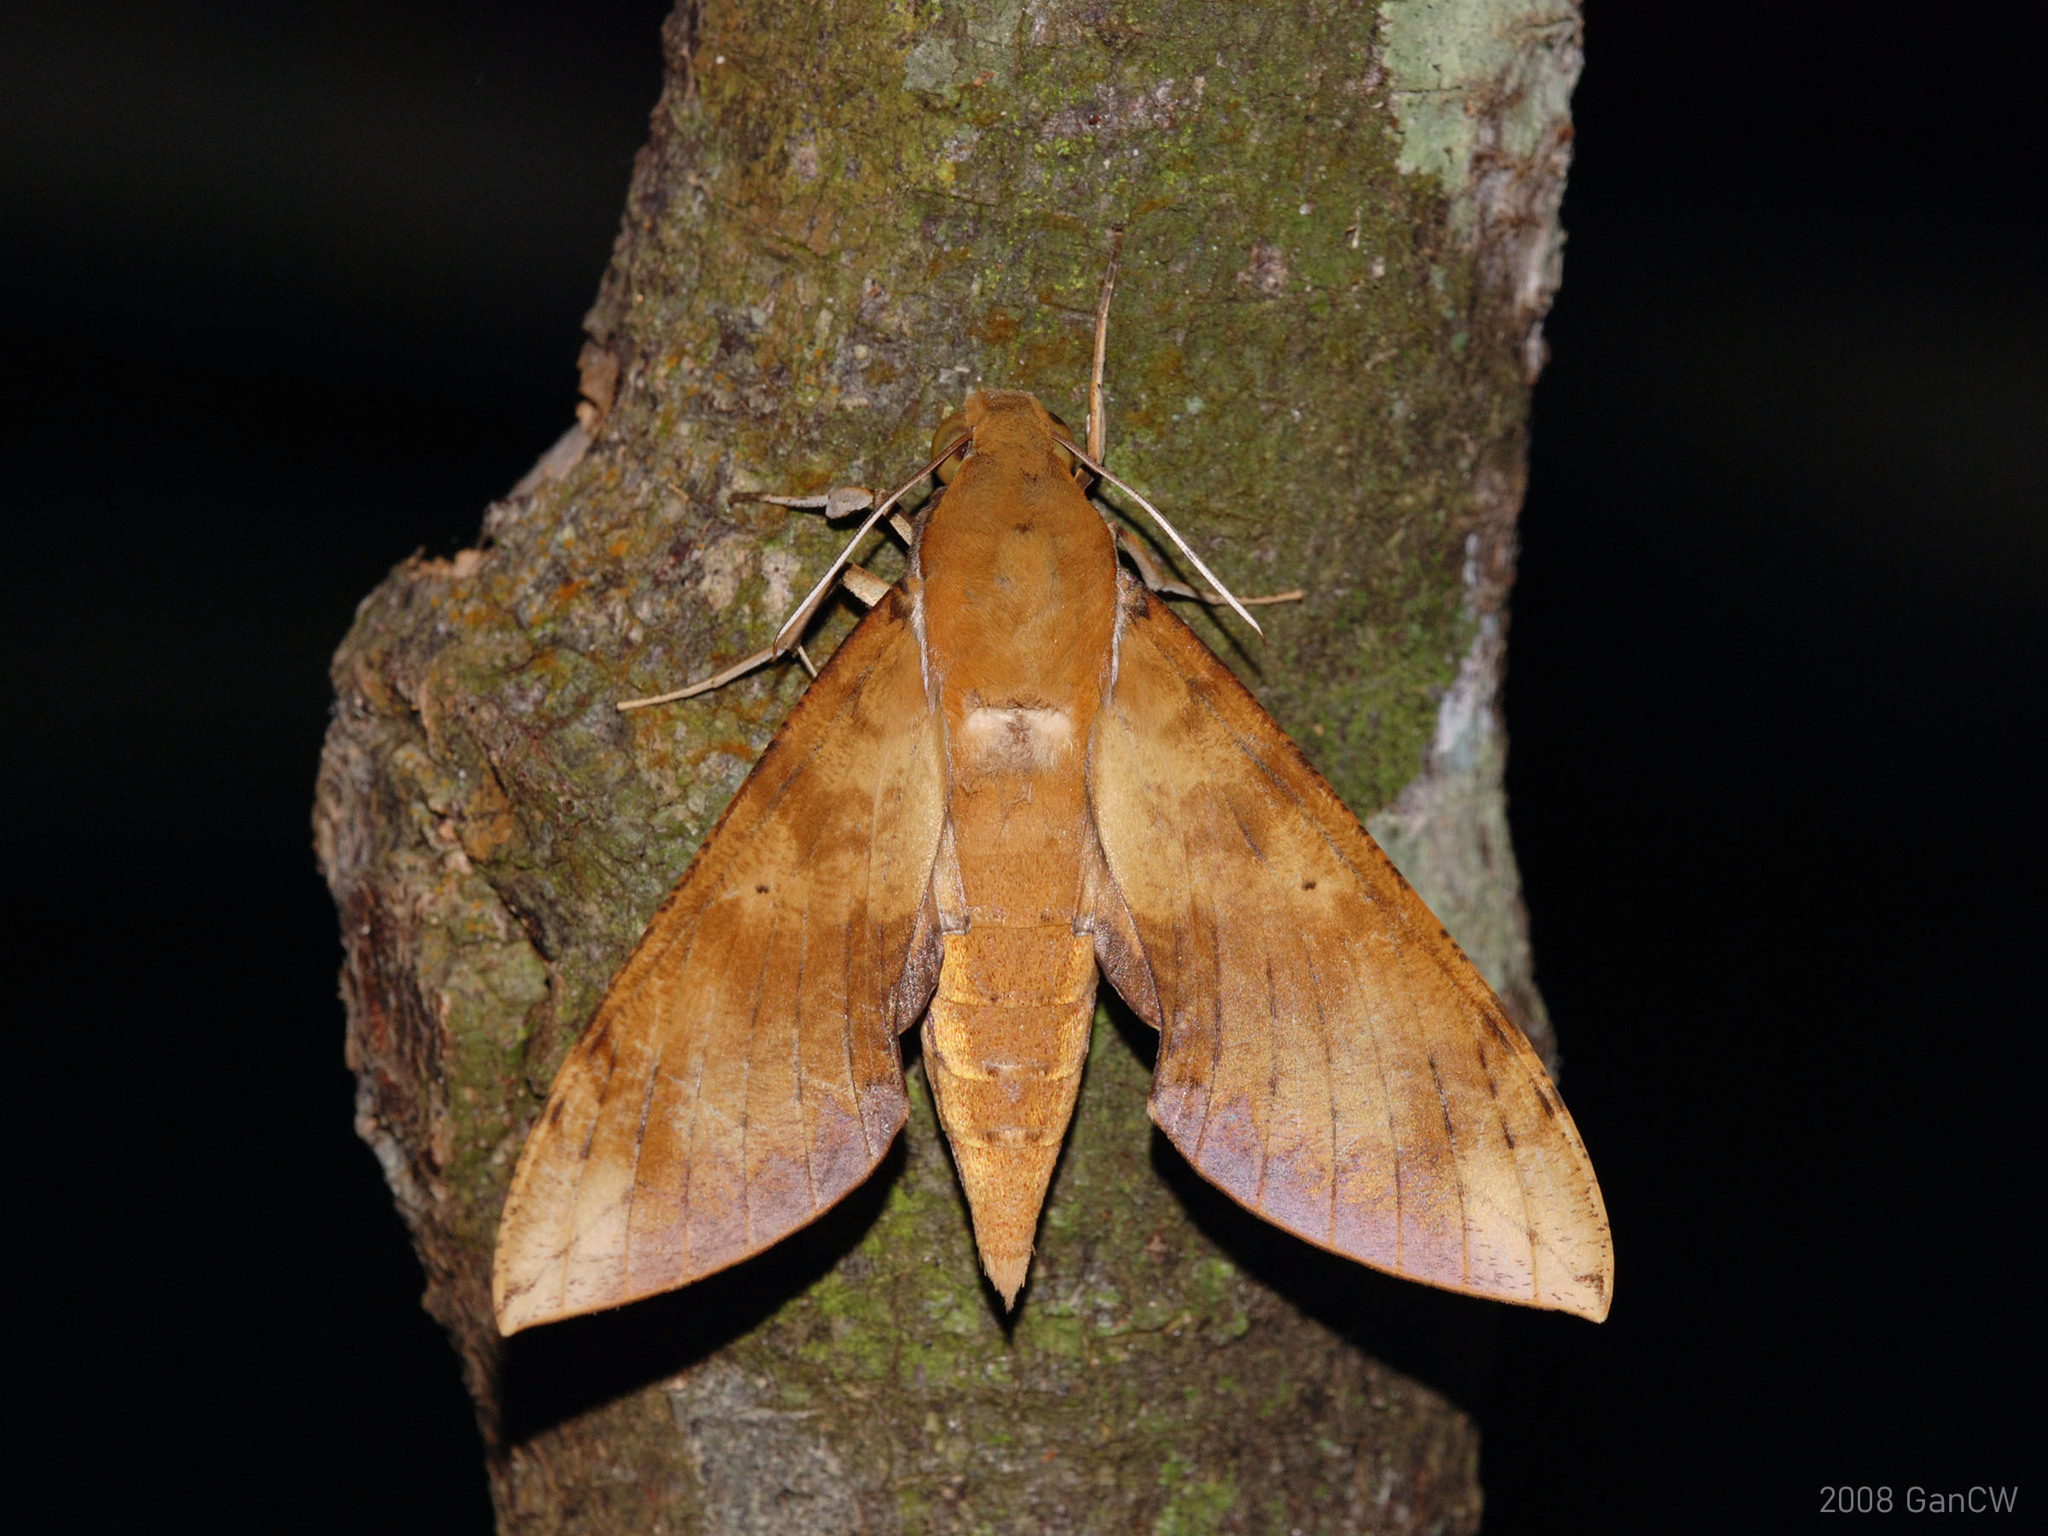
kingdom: Animalia
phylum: Arthropoda
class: Insecta
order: Lepidoptera
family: Sphingidae
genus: Cechenena
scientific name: Cechenena chimaera
